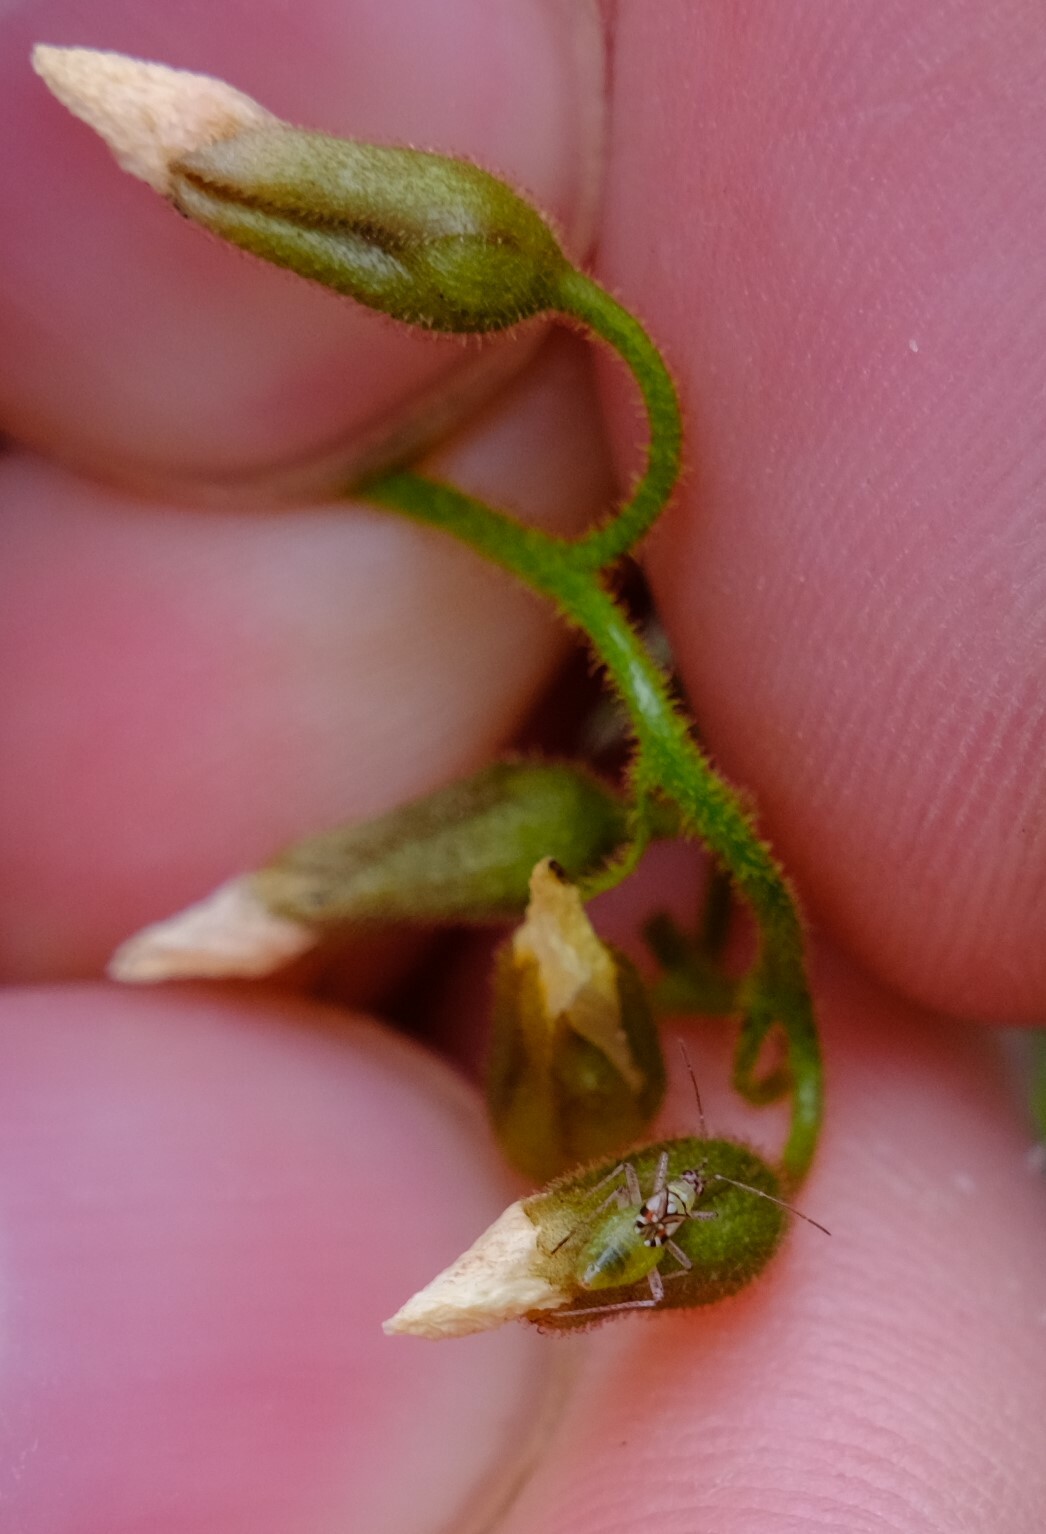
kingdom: Plantae
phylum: Tracheophyta
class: Magnoliopsida
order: Caryophyllales
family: Droseraceae
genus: Drosera
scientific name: Drosera macrantha
